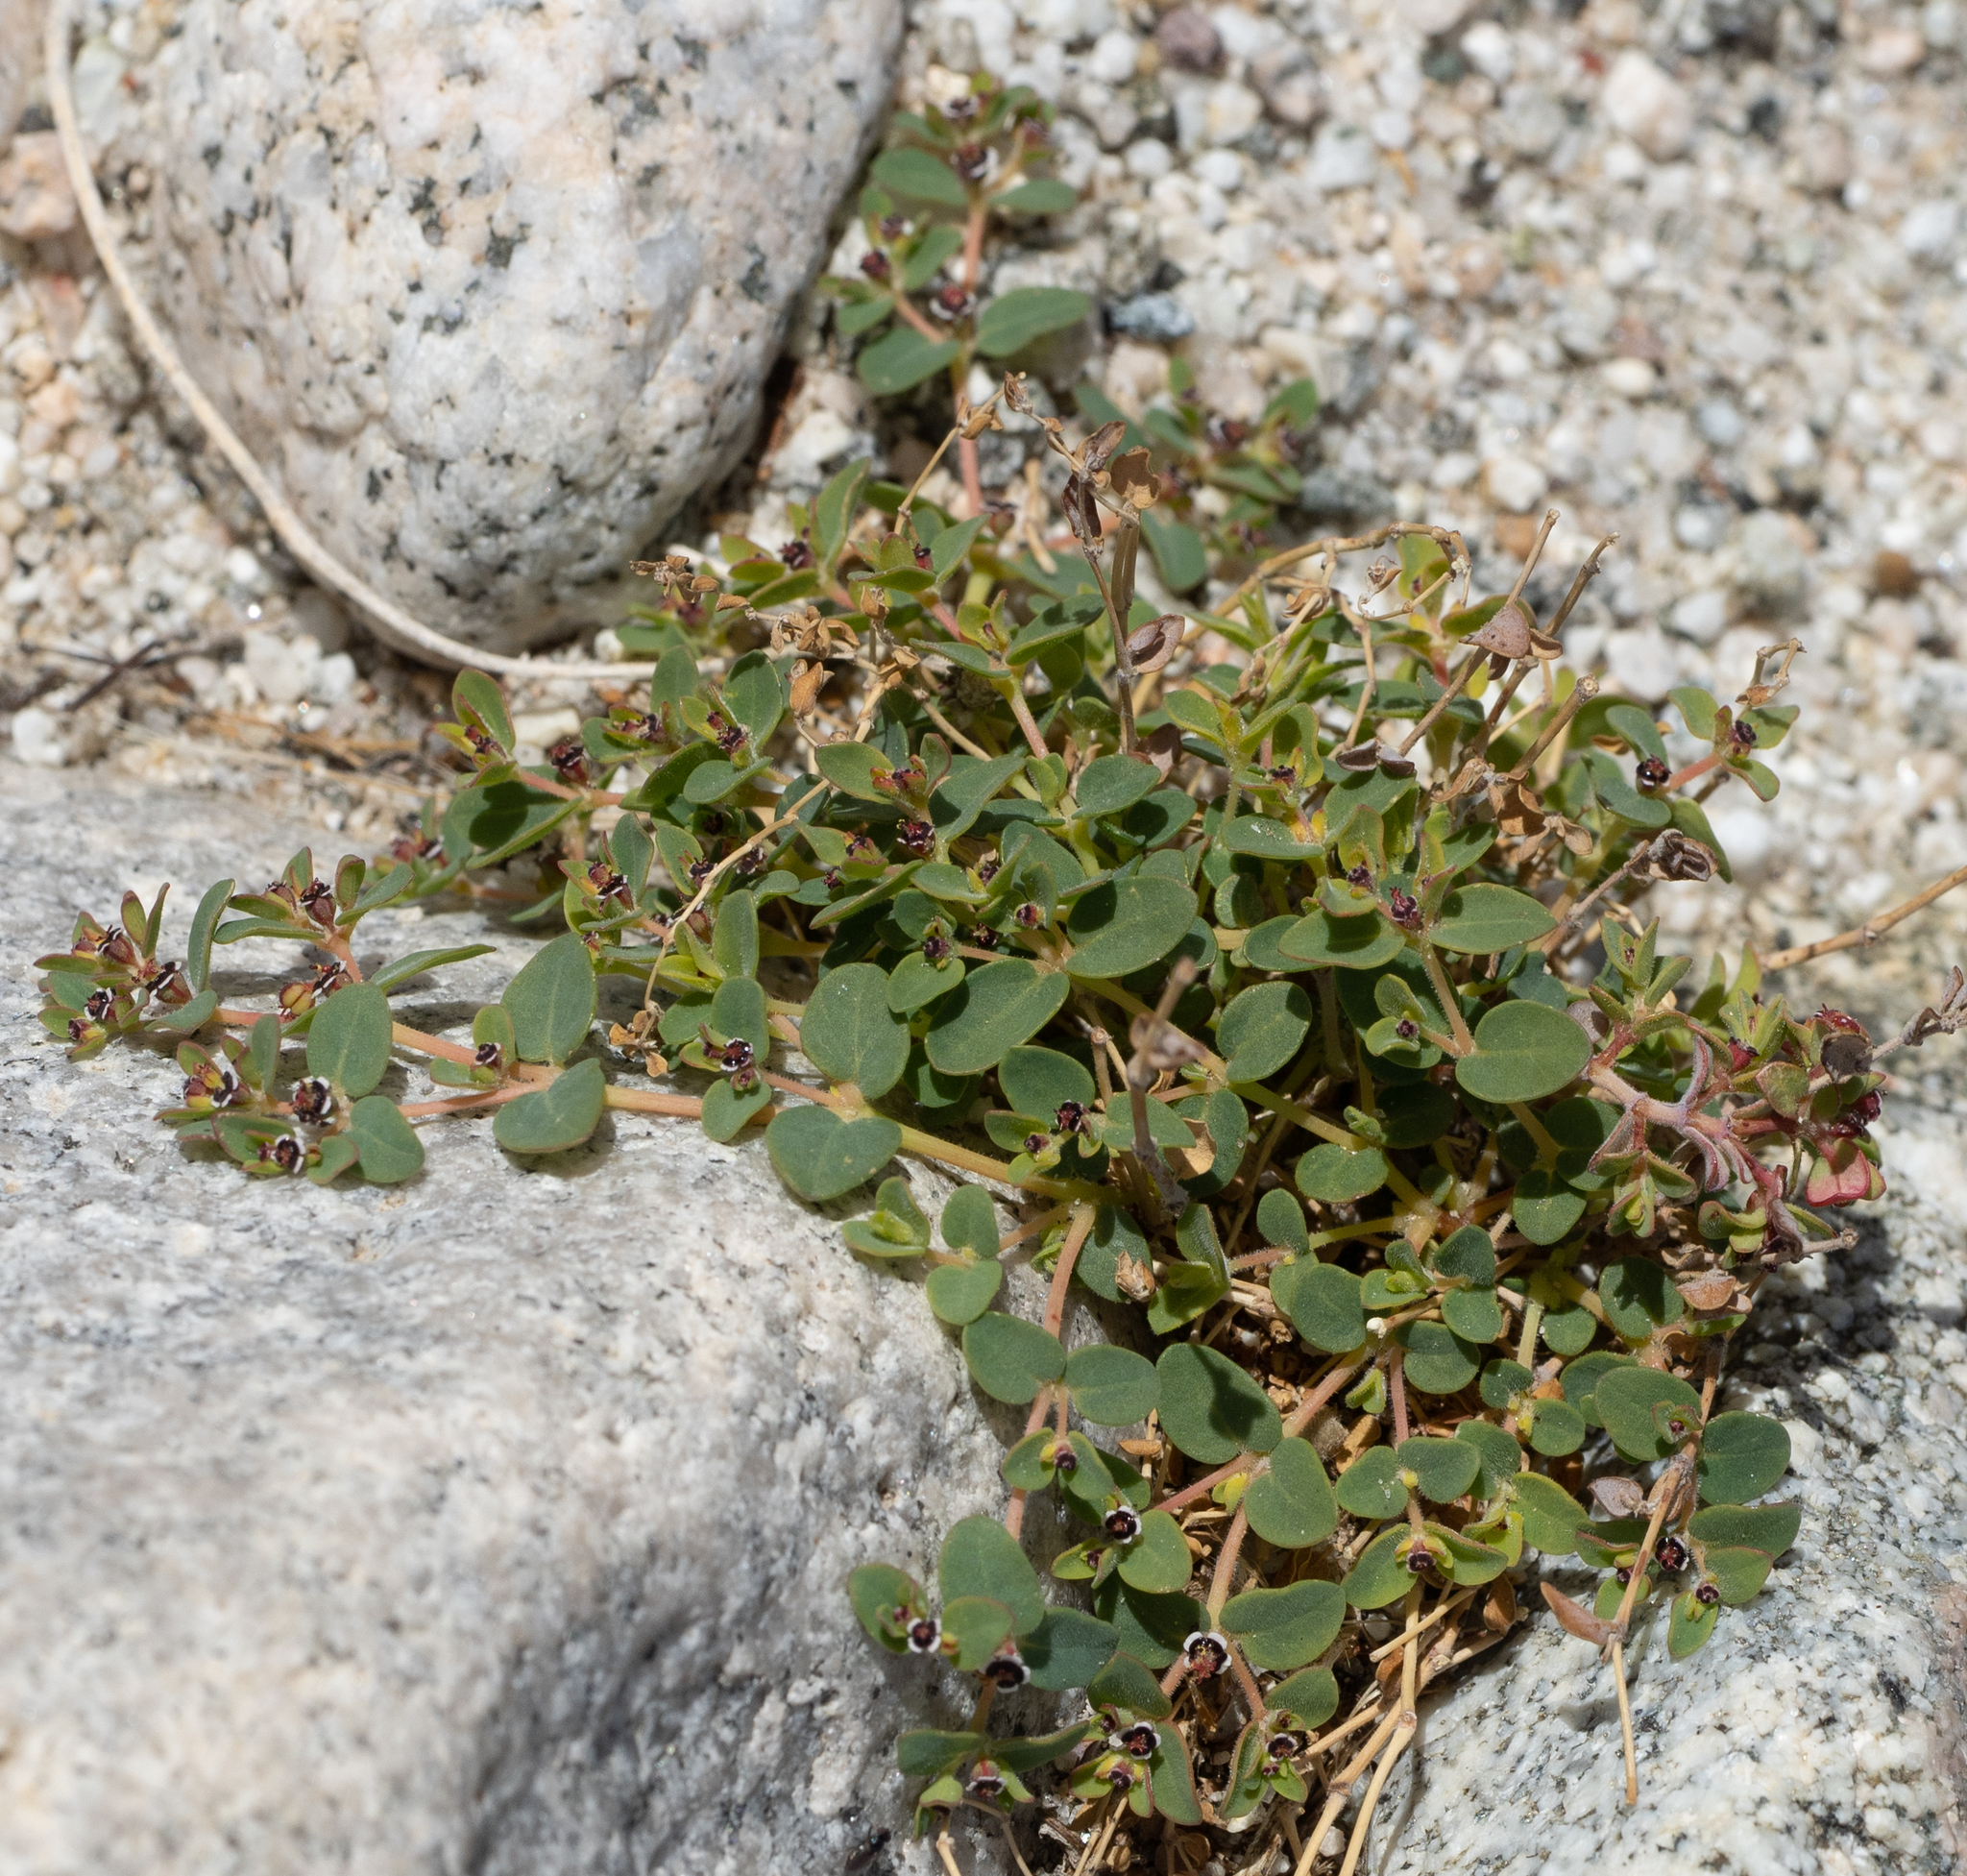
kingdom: Plantae
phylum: Tracheophyta
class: Magnoliopsida
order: Malpighiales
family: Euphorbiaceae
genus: Euphorbia
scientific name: Euphorbia polycarpa
